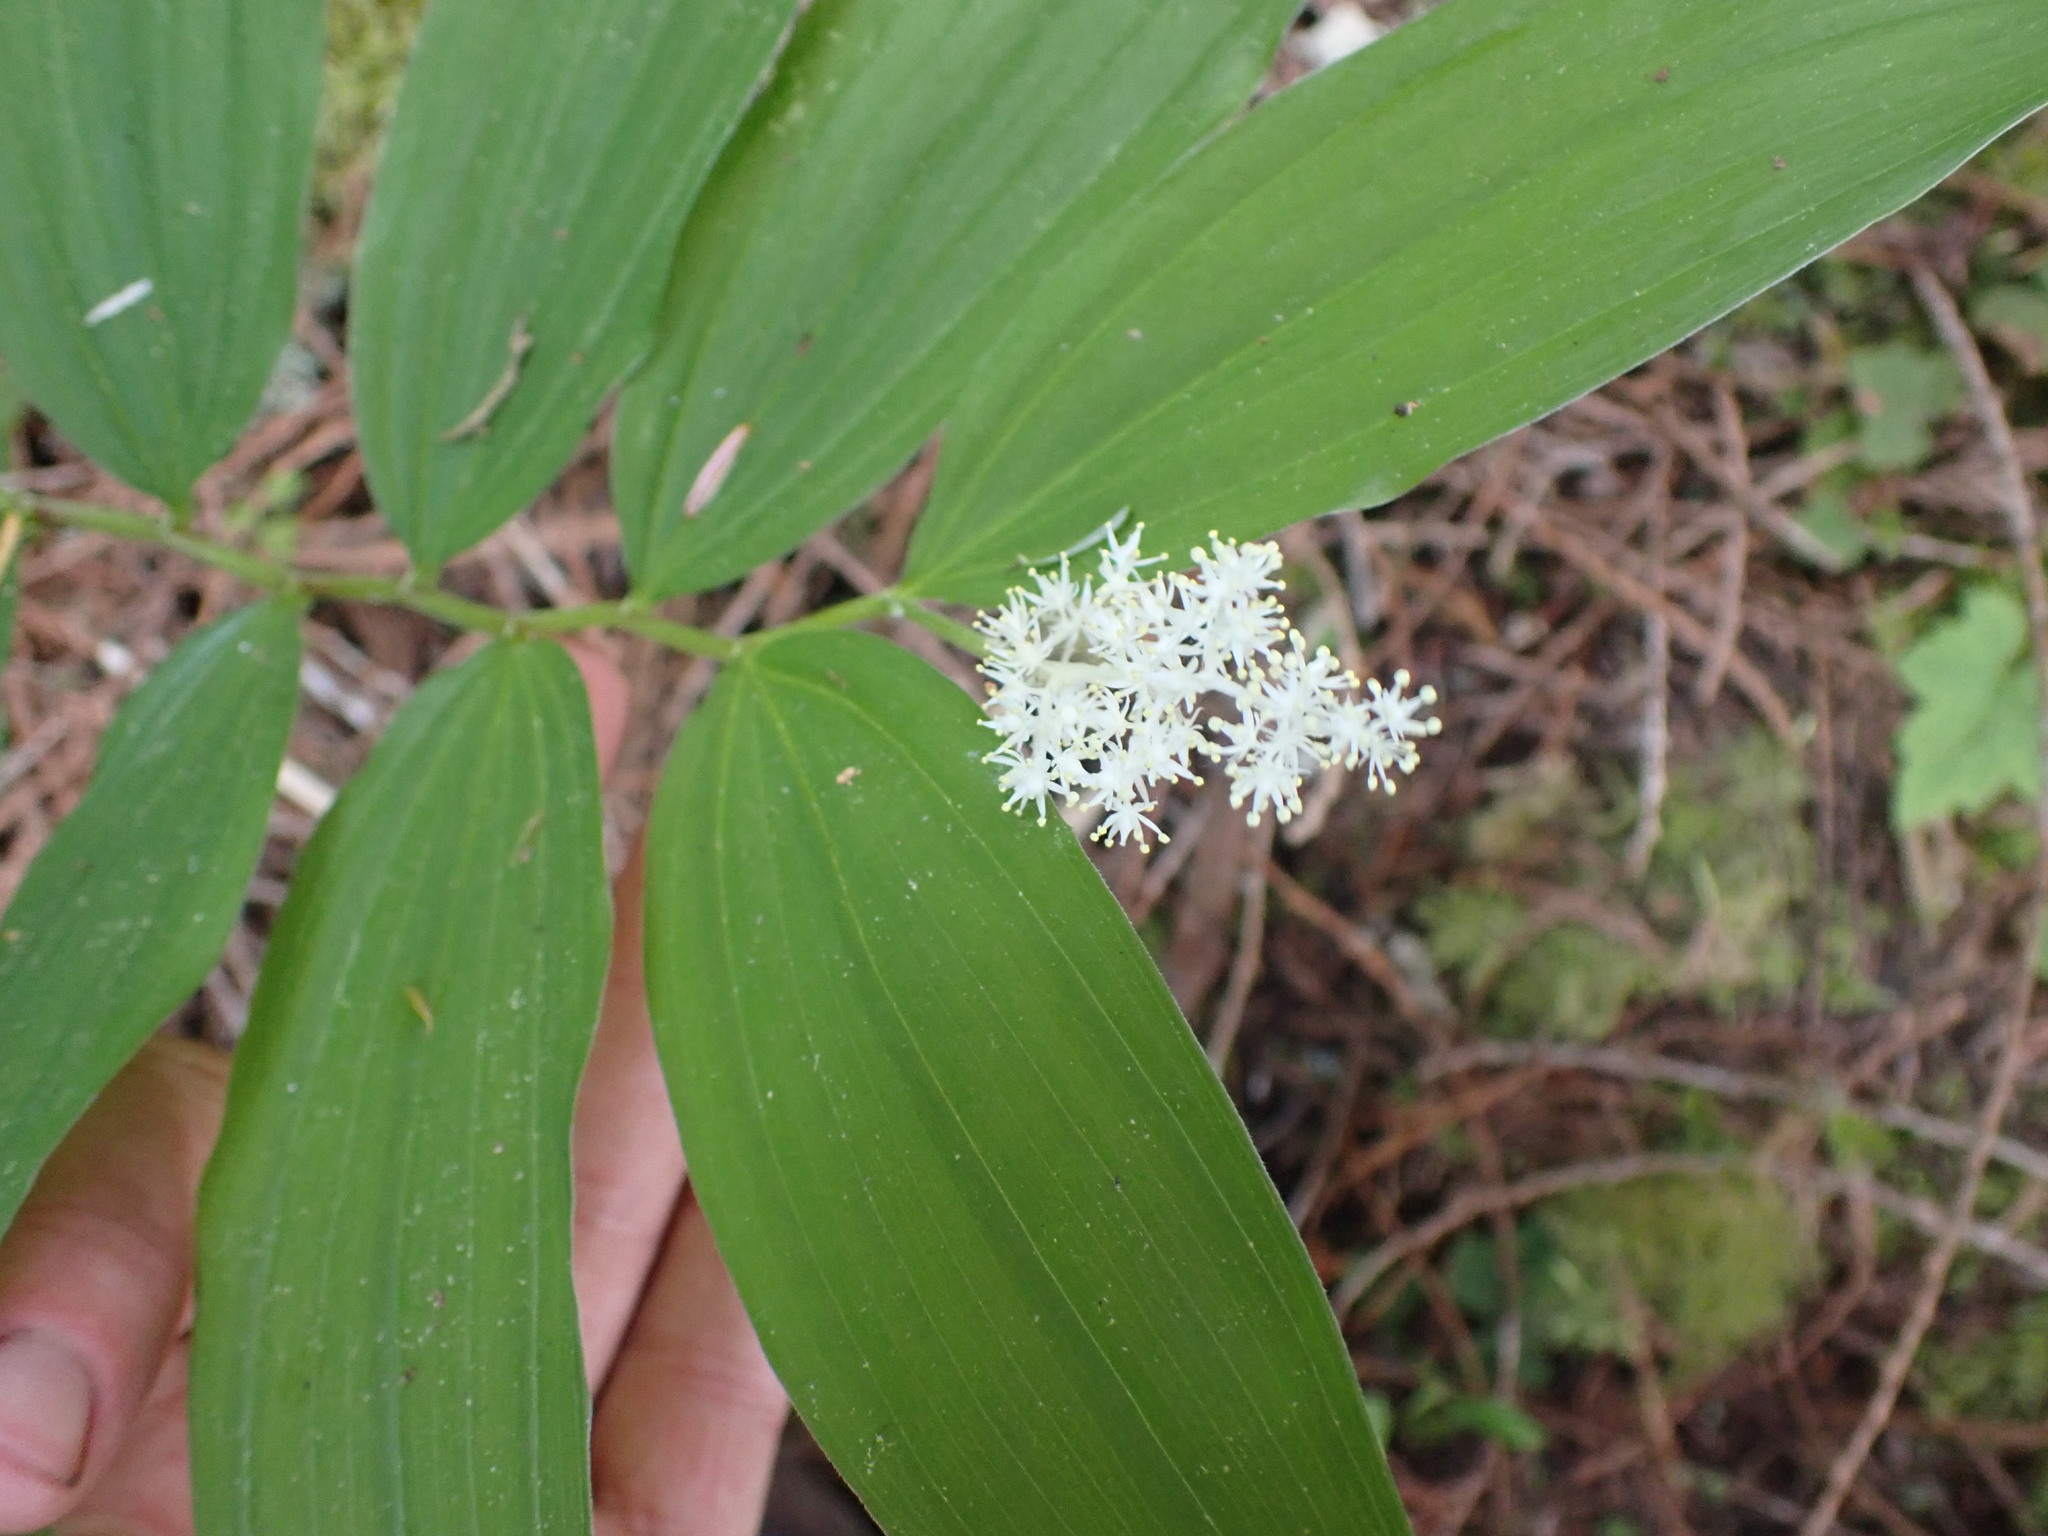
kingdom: Plantae
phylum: Tracheophyta
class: Liliopsida
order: Asparagales
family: Asparagaceae
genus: Maianthemum
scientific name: Maianthemum racemosum
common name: False spikenard
